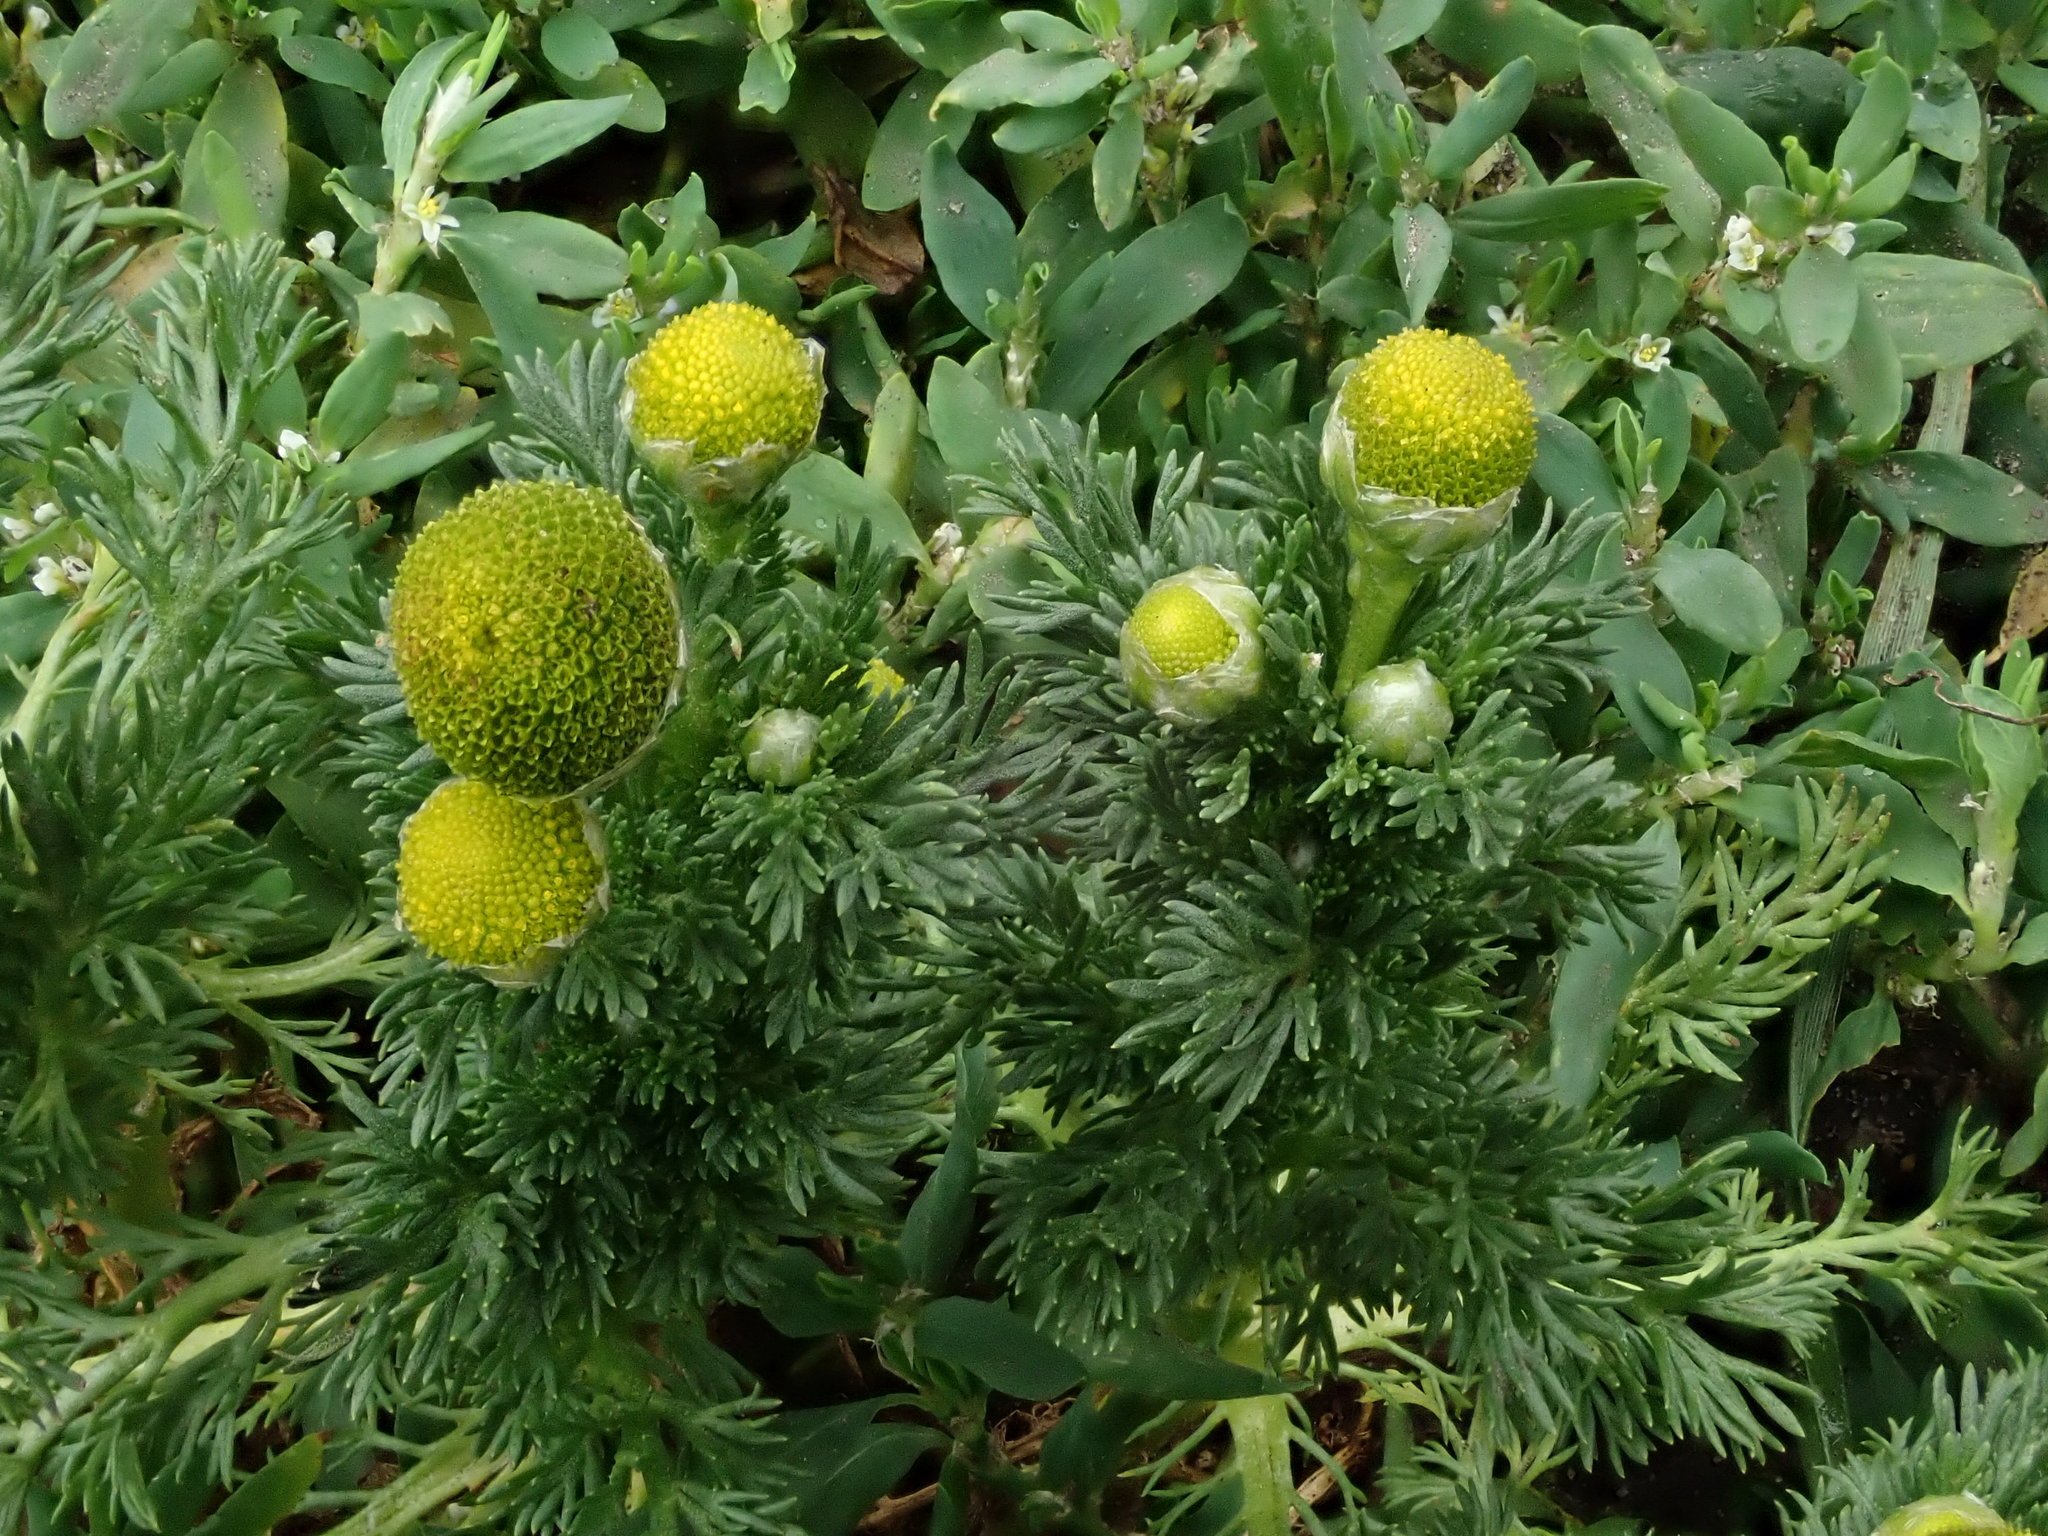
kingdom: Plantae
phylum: Tracheophyta
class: Magnoliopsida
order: Asterales
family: Asteraceae
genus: Matricaria
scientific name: Matricaria discoidea
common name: Disc mayweed
